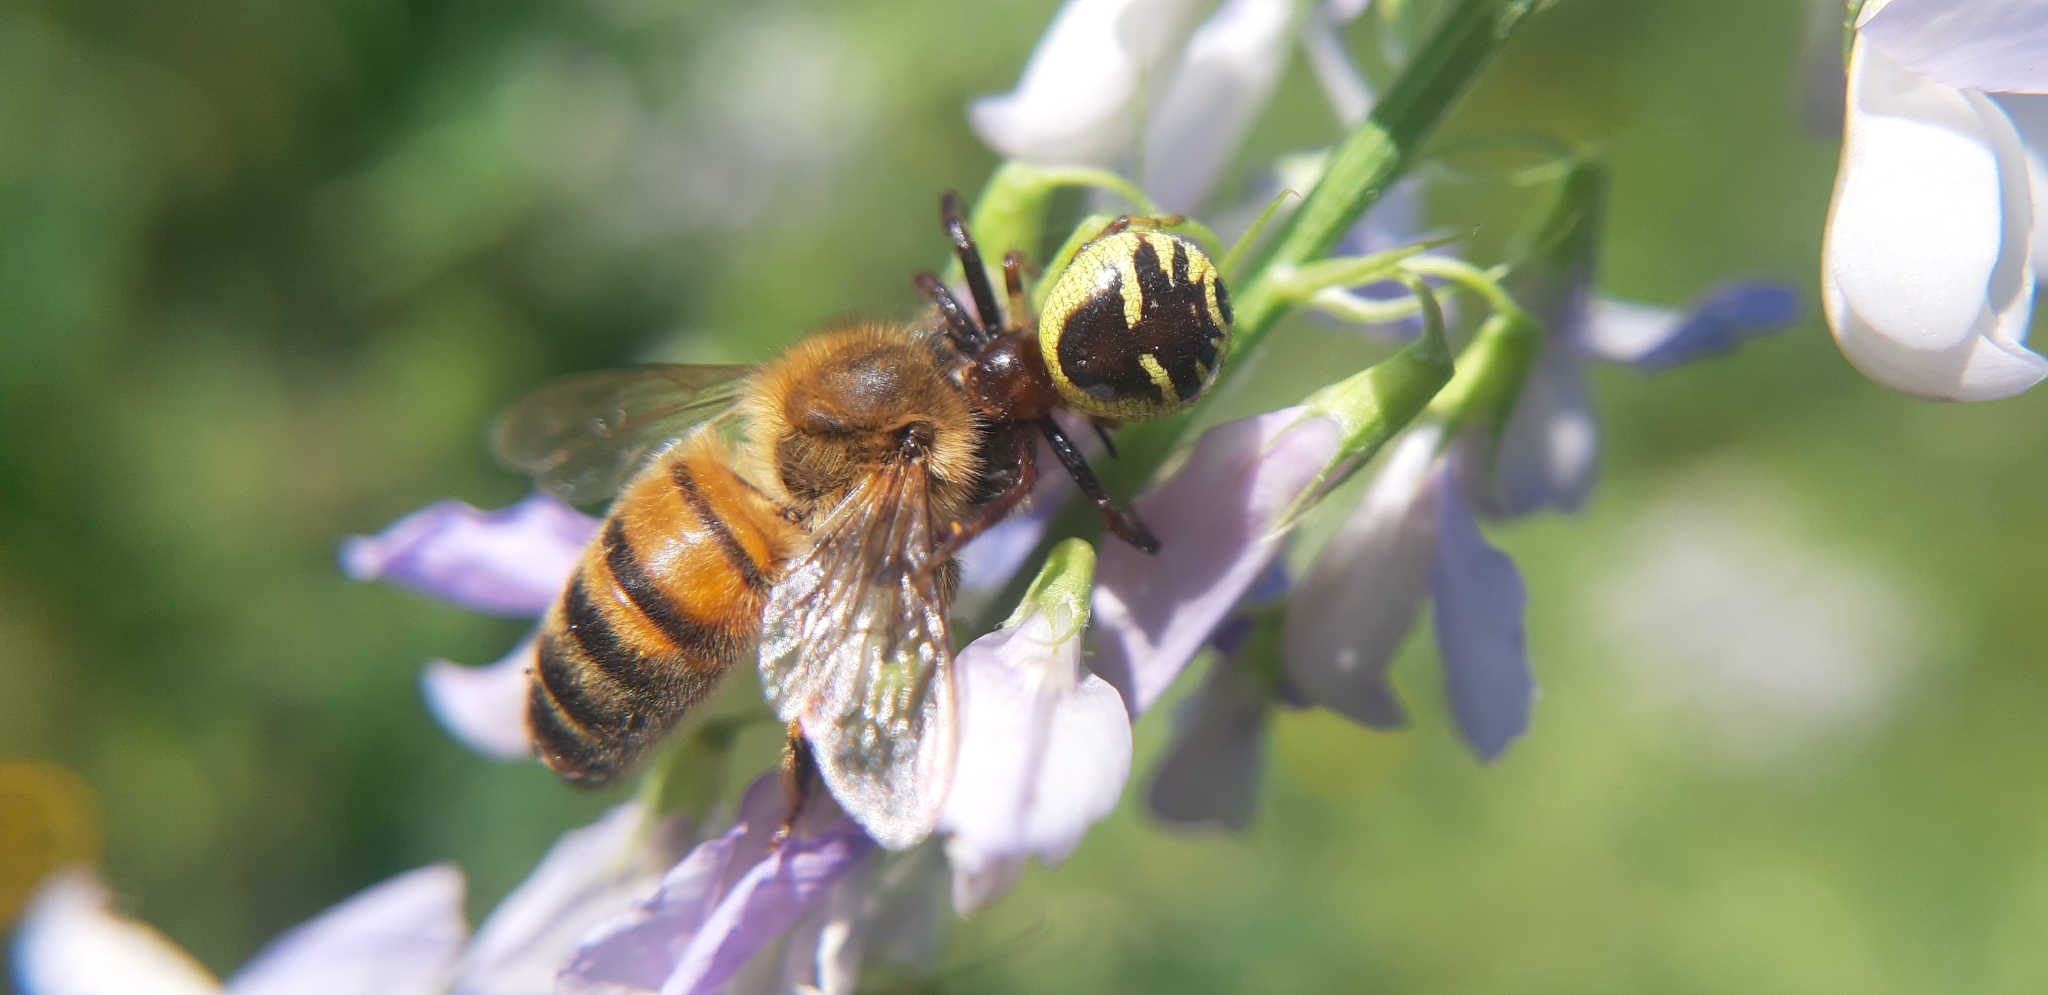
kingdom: Animalia
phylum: Arthropoda
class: Arachnida
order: Araneae
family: Thomisidae
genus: Synema
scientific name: Synema globosum
